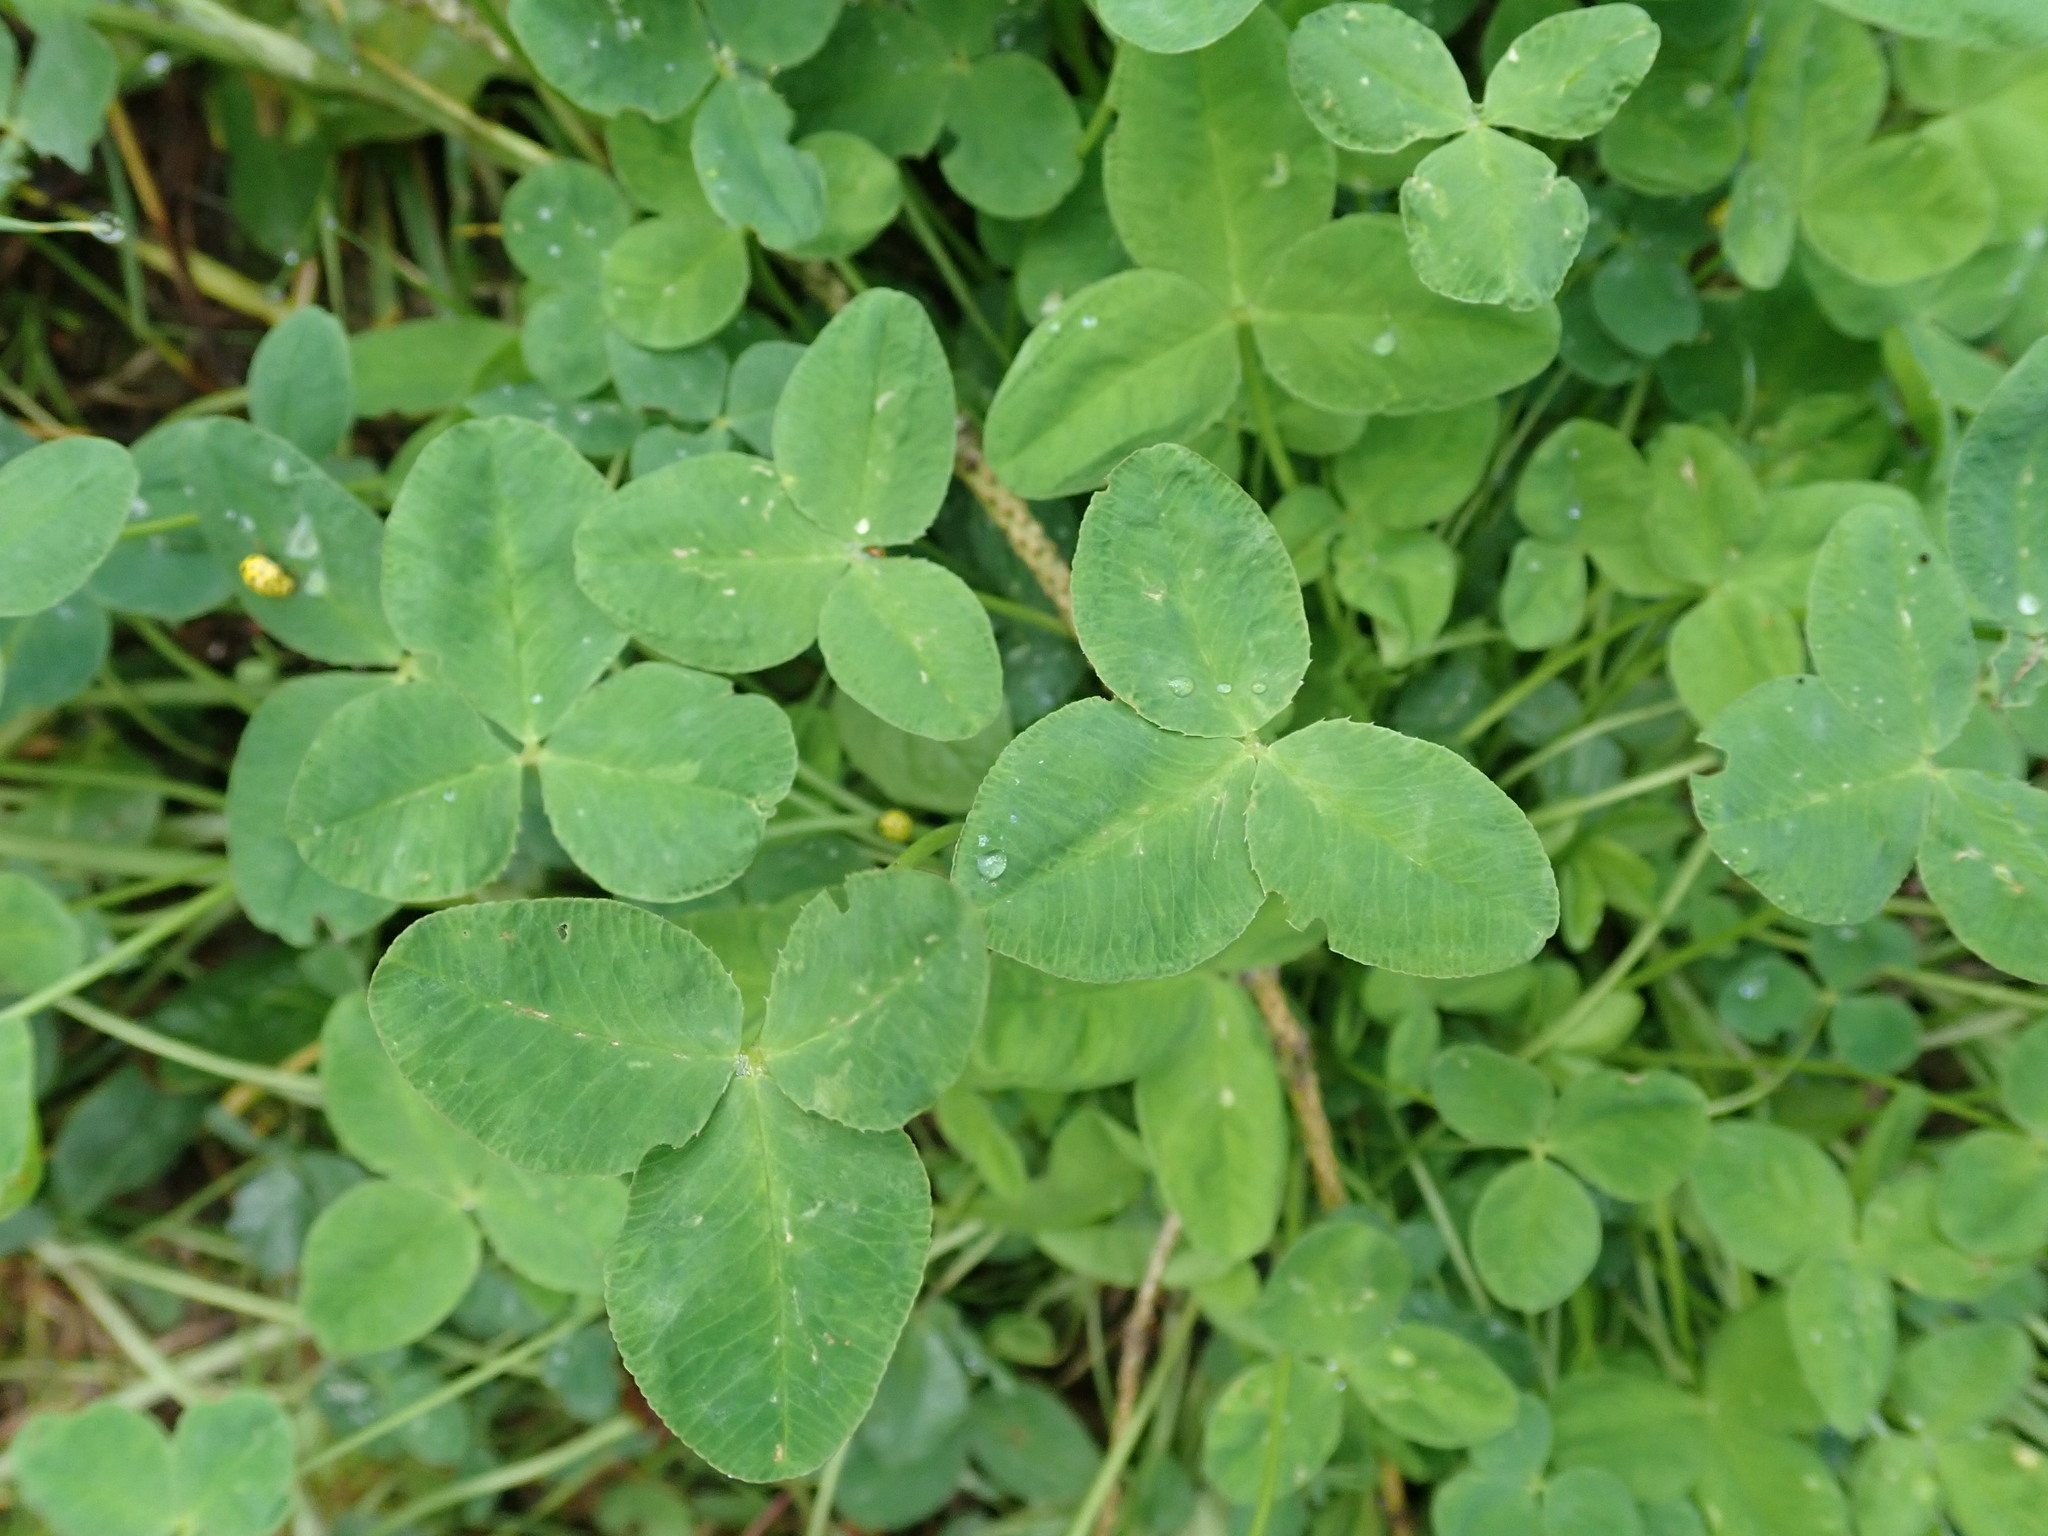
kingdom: Plantae
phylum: Tracheophyta
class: Magnoliopsida
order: Fabales
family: Fabaceae
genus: Trifolium
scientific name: Trifolium hybridum
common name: Alsike clover
